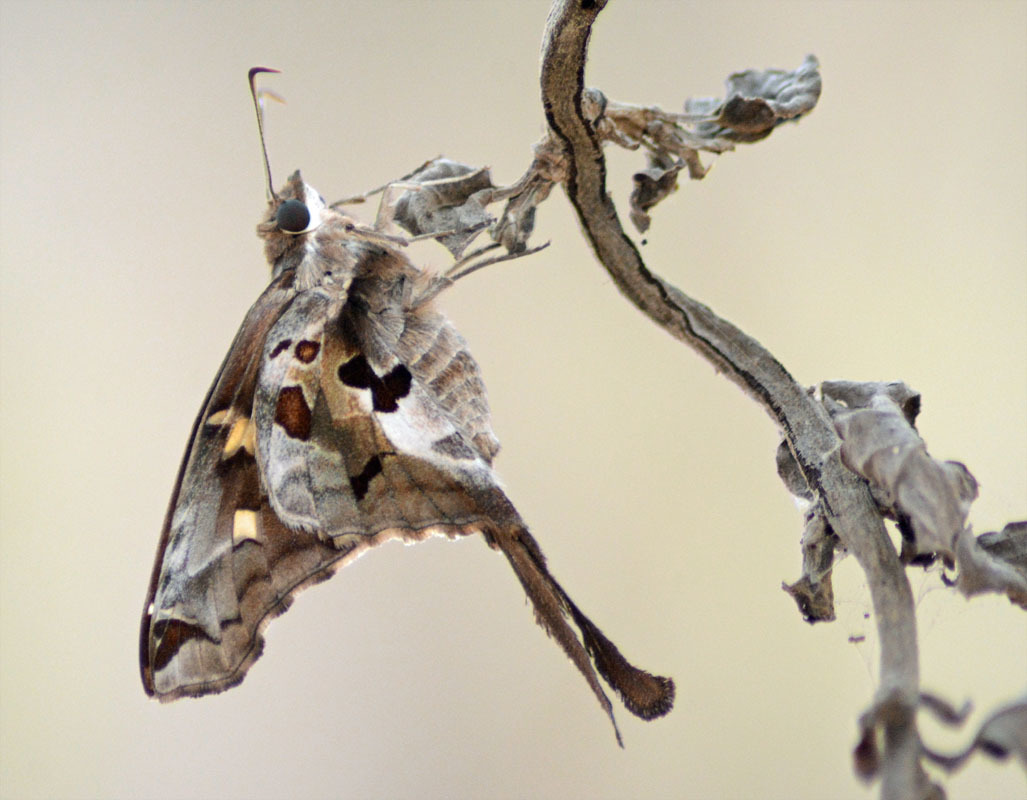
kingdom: Animalia
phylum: Arthropoda
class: Insecta
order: Lepidoptera
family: Hesperiidae
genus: Chioides
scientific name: Chioides zilpa
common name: Zilpa longtail
